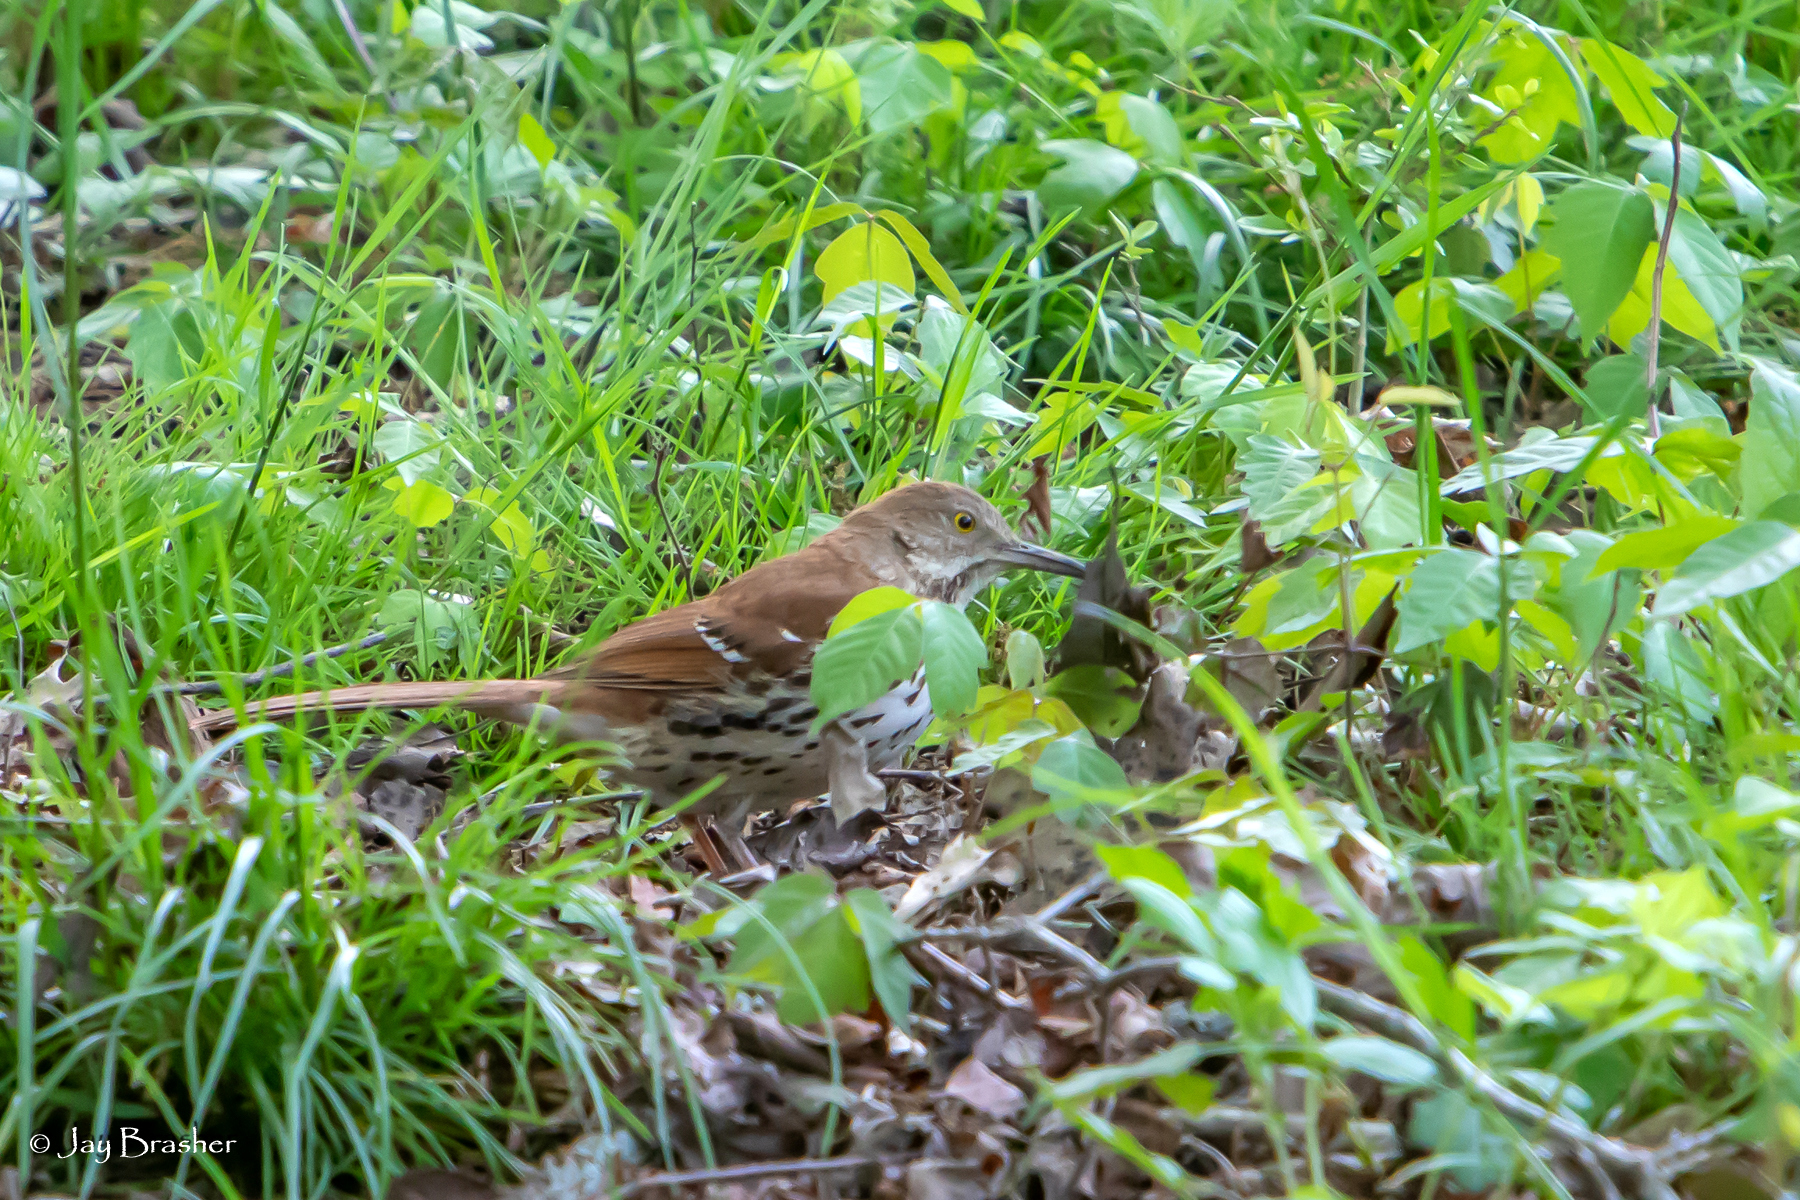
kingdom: Animalia
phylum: Chordata
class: Aves
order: Passeriformes
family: Mimidae
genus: Toxostoma
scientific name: Toxostoma rufum
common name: Brown thrasher
